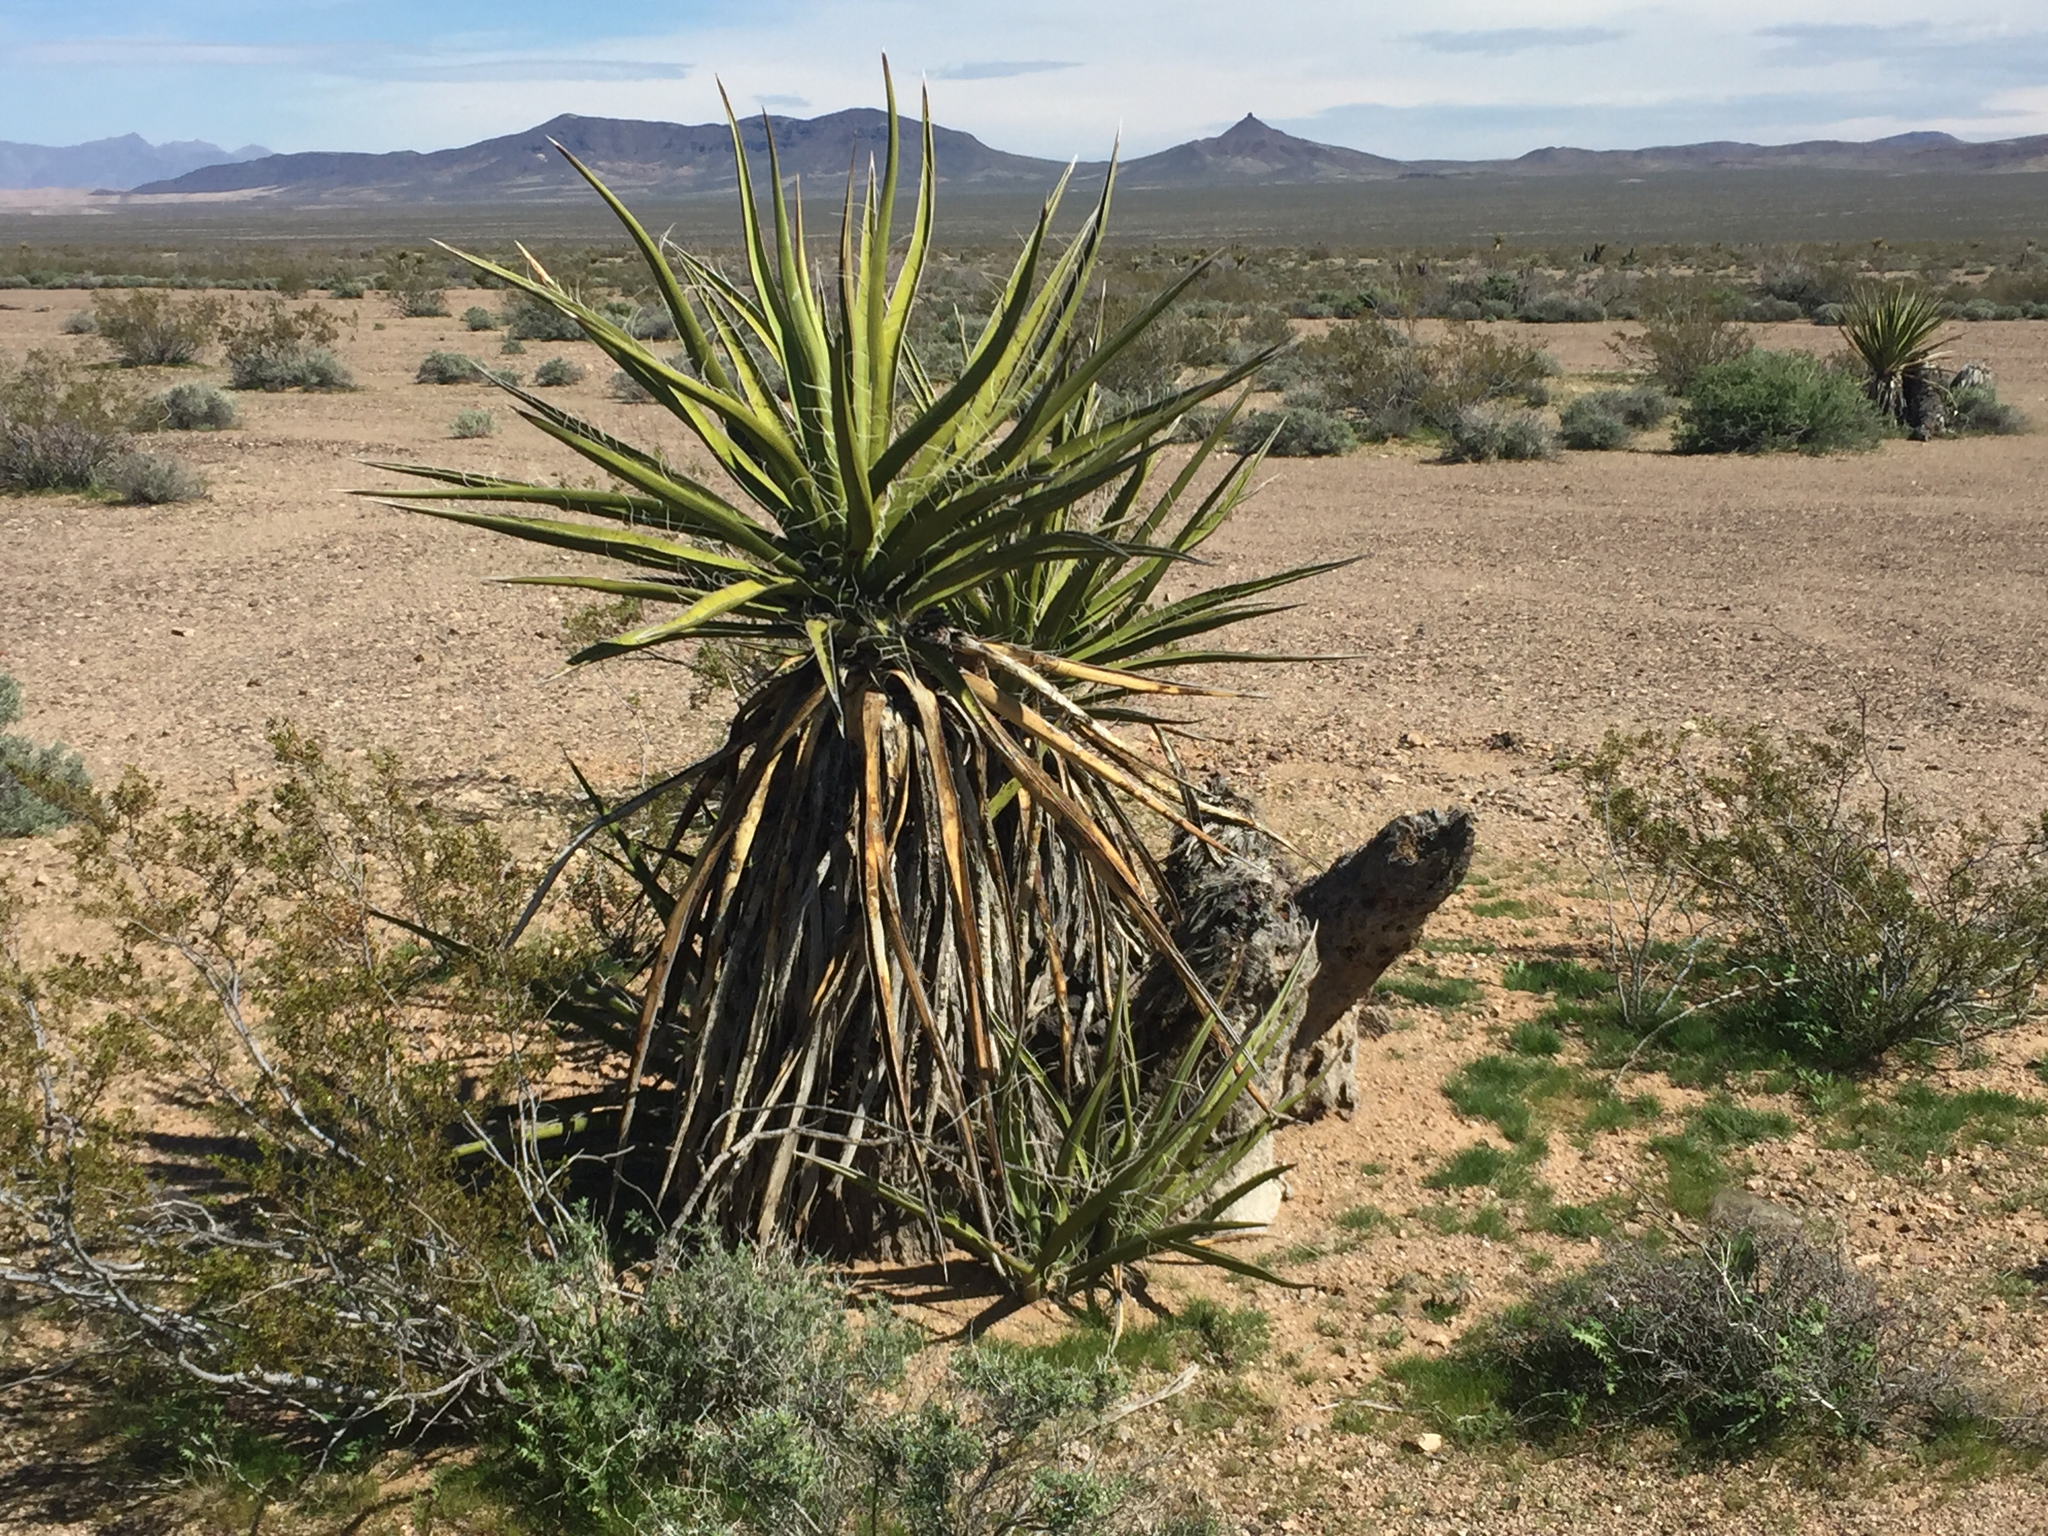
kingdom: Plantae
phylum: Tracheophyta
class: Liliopsida
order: Asparagales
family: Asparagaceae
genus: Yucca
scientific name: Yucca schidigera
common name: Mojave yucca
